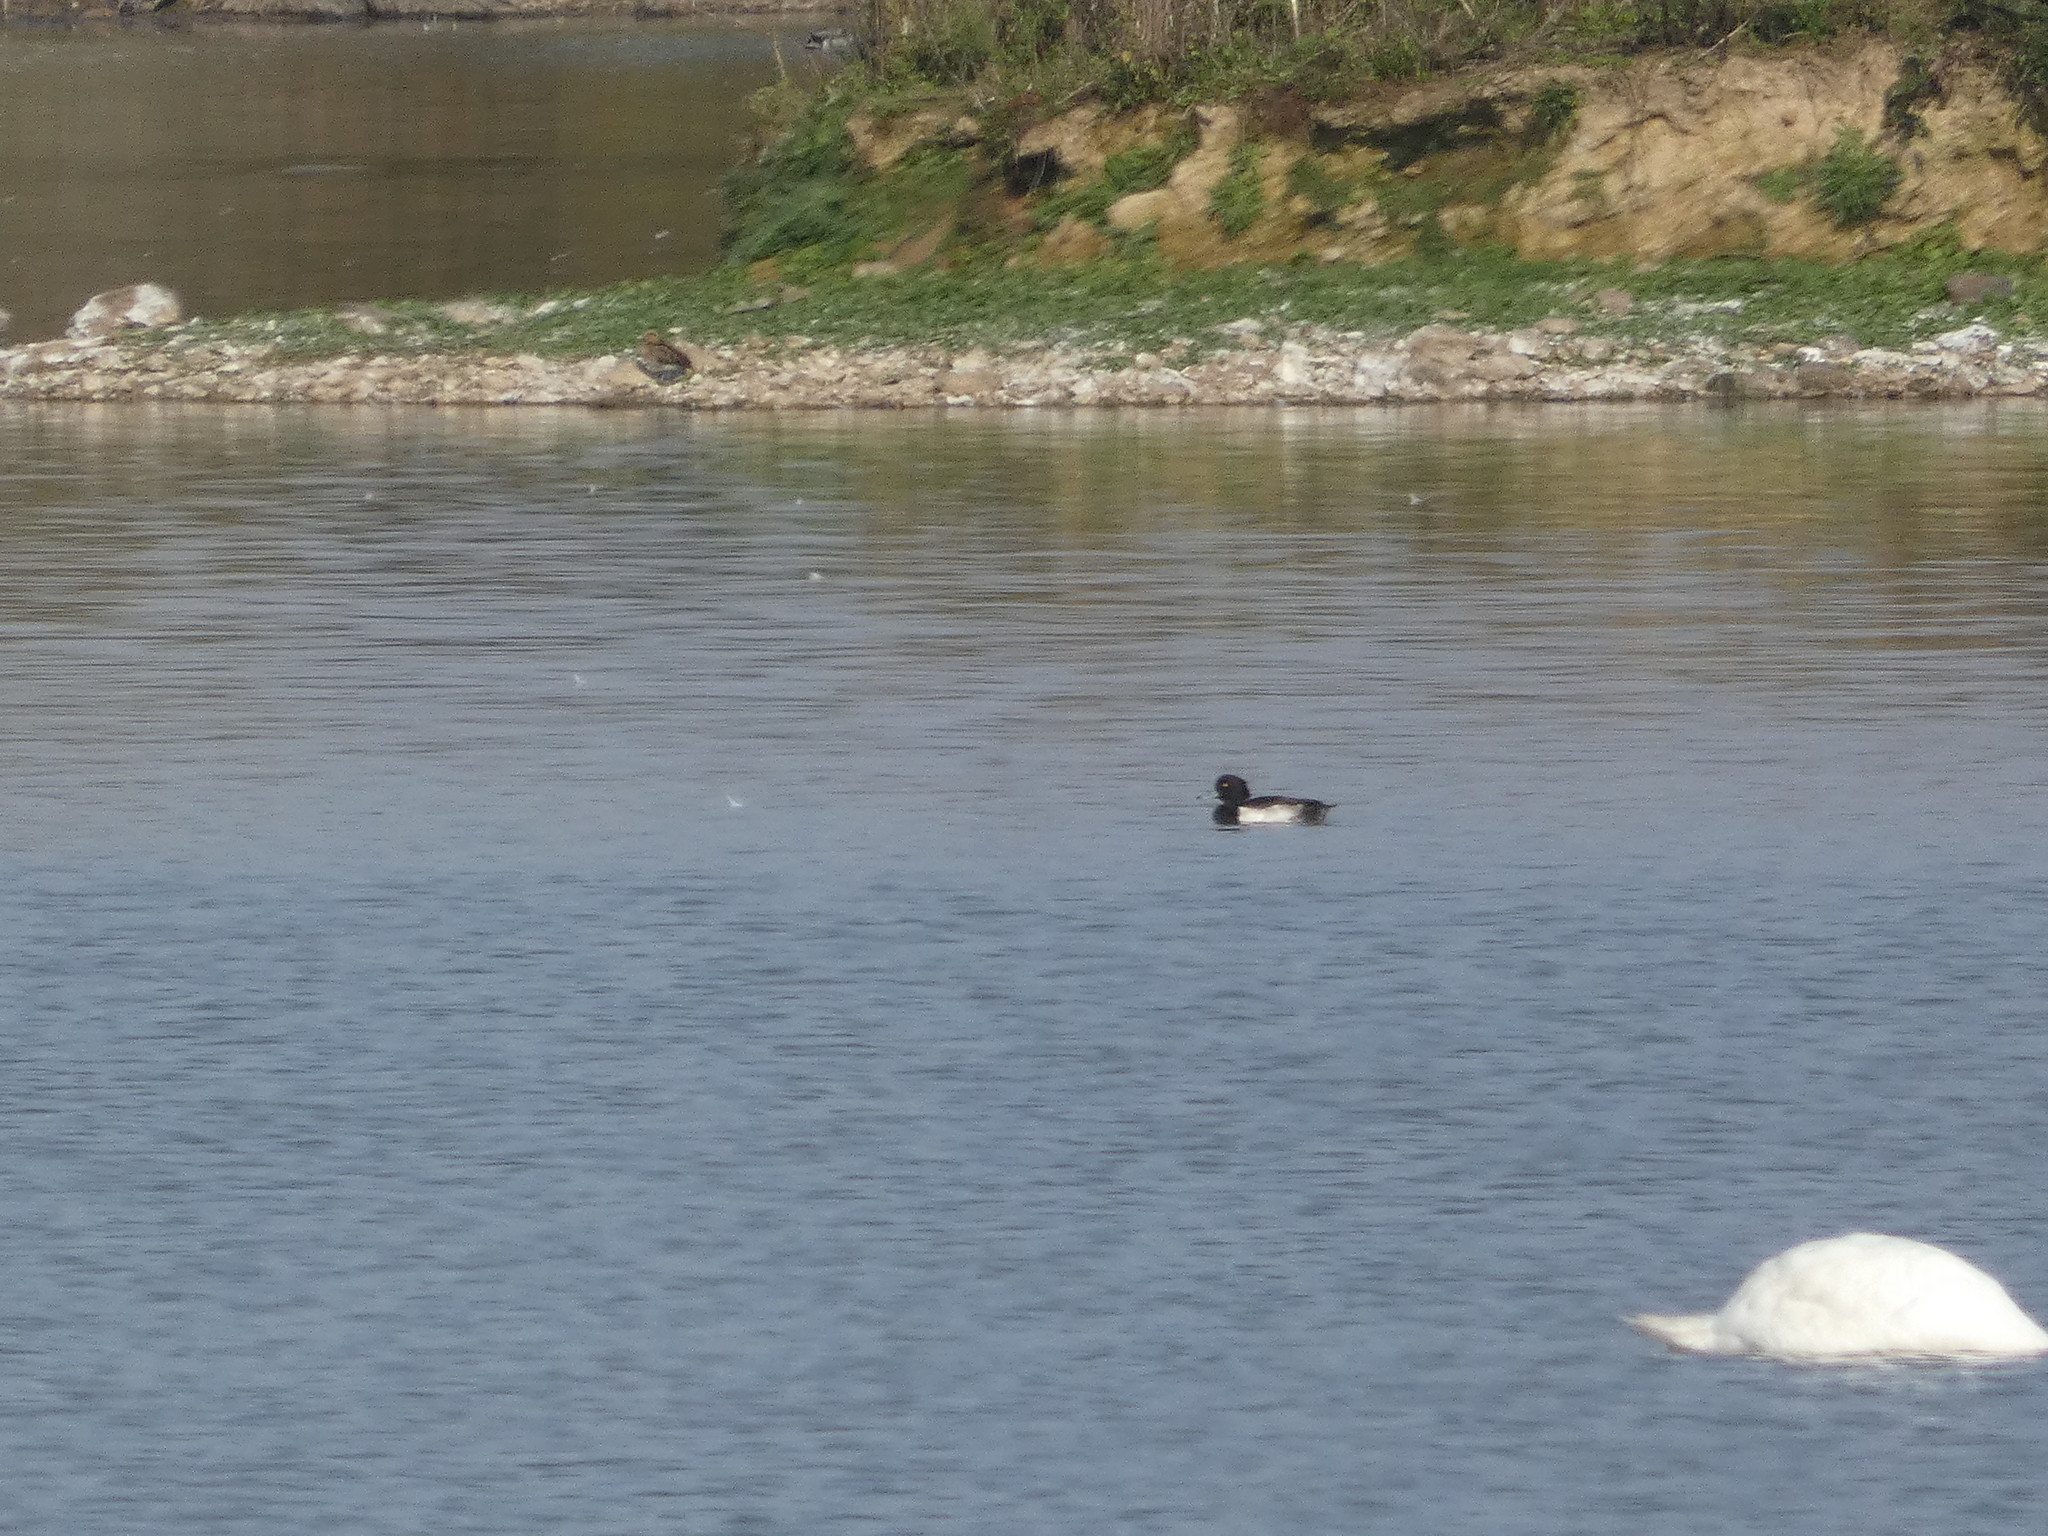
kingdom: Animalia
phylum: Chordata
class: Aves
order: Anseriformes
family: Anatidae
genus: Aythya
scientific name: Aythya fuligula
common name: Tufted duck
